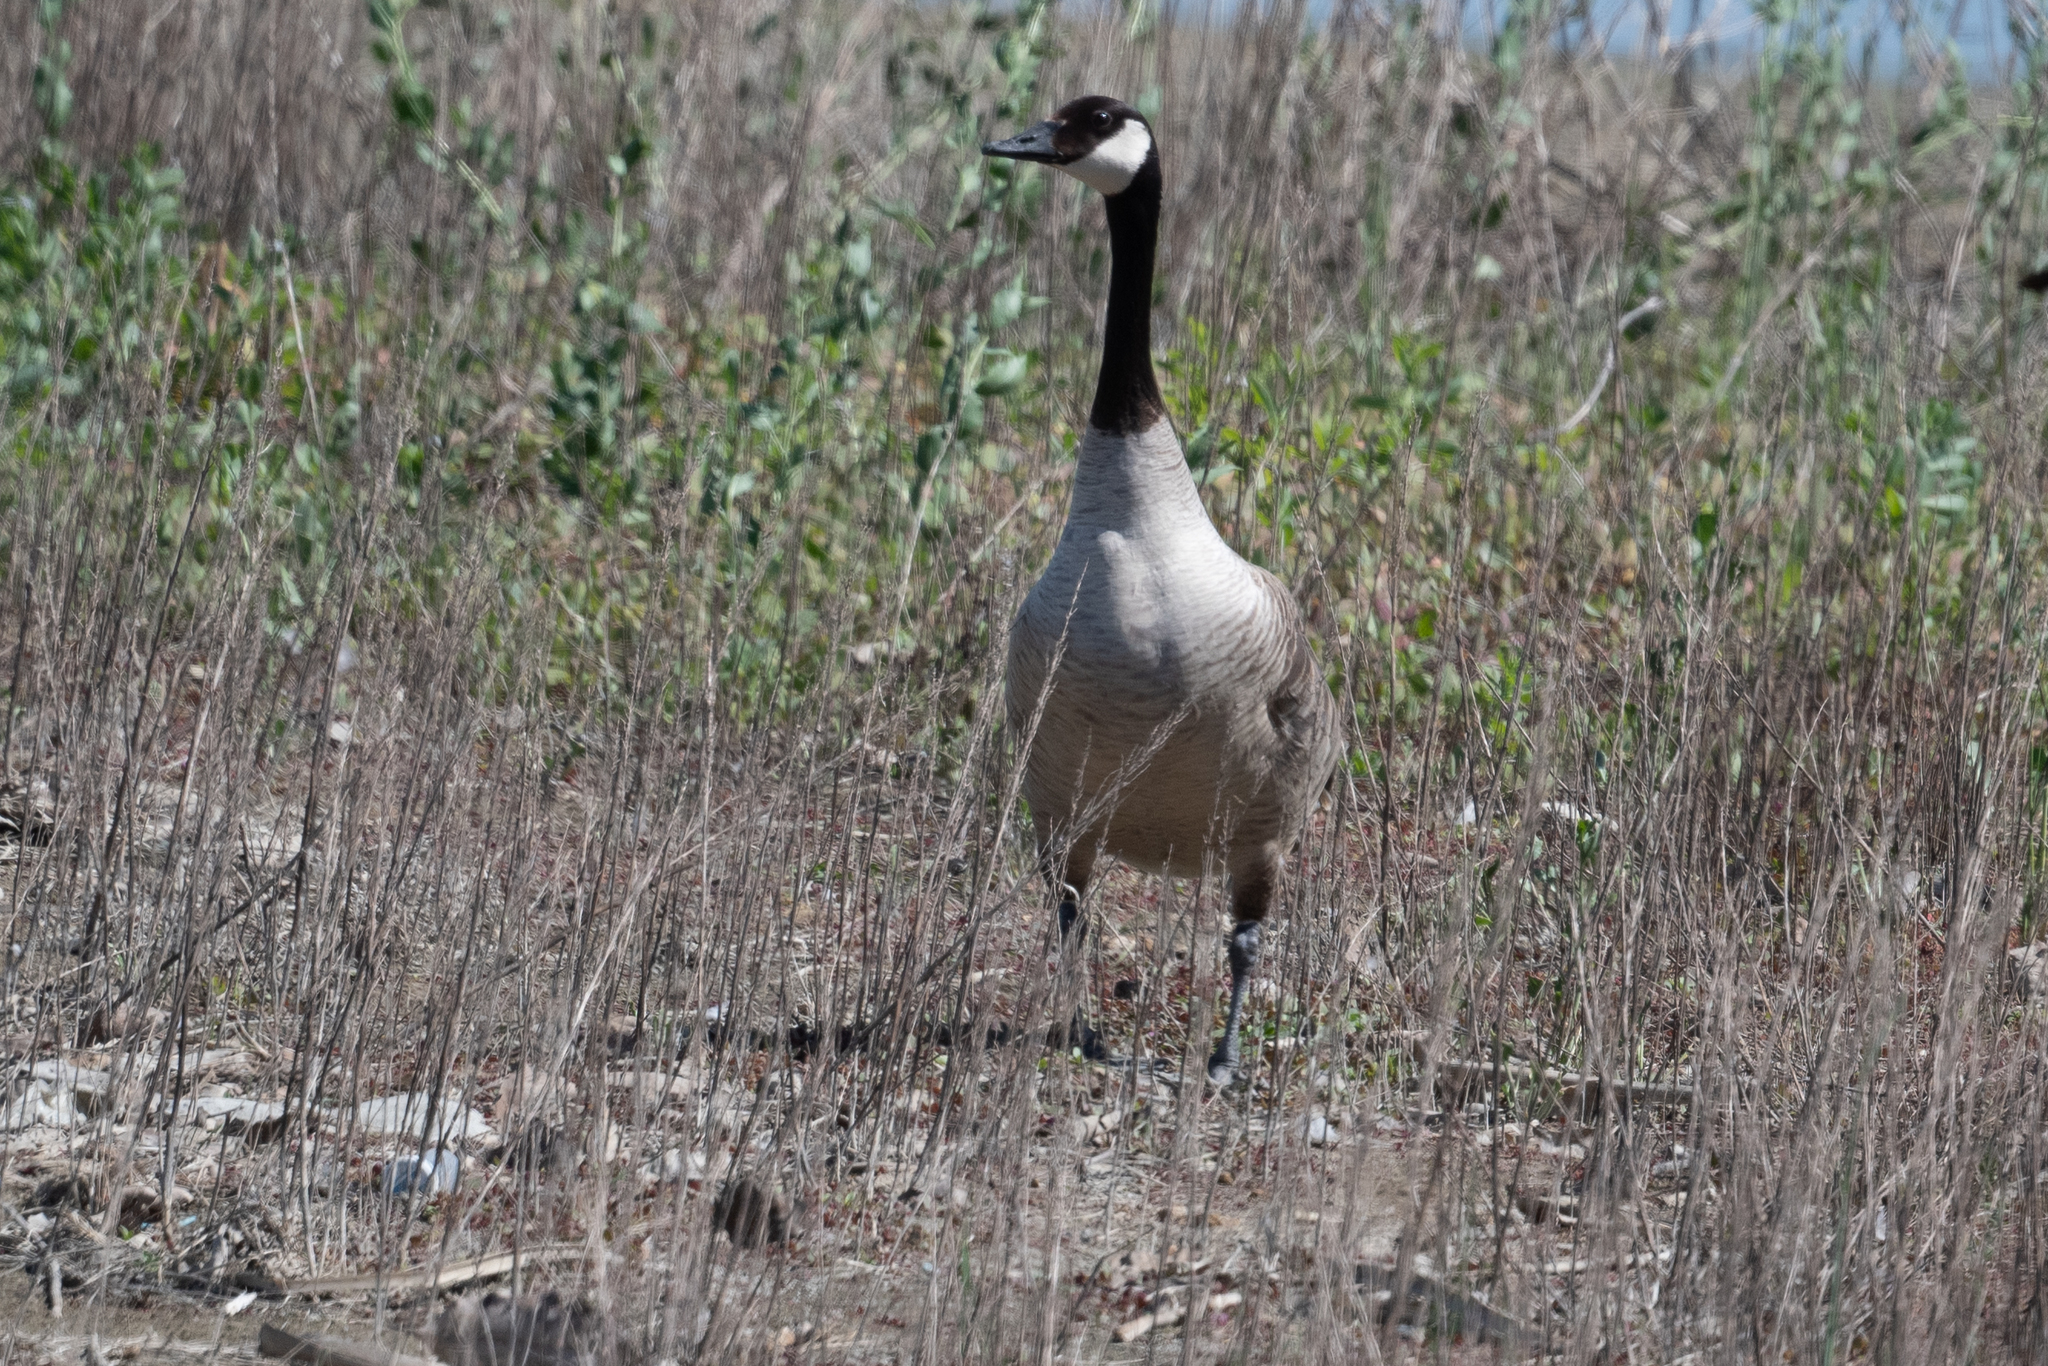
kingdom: Animalia
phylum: Chordata
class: Aves
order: Anseriformes
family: Anatidae
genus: Branta
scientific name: Branta canadensis
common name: Canada goose
